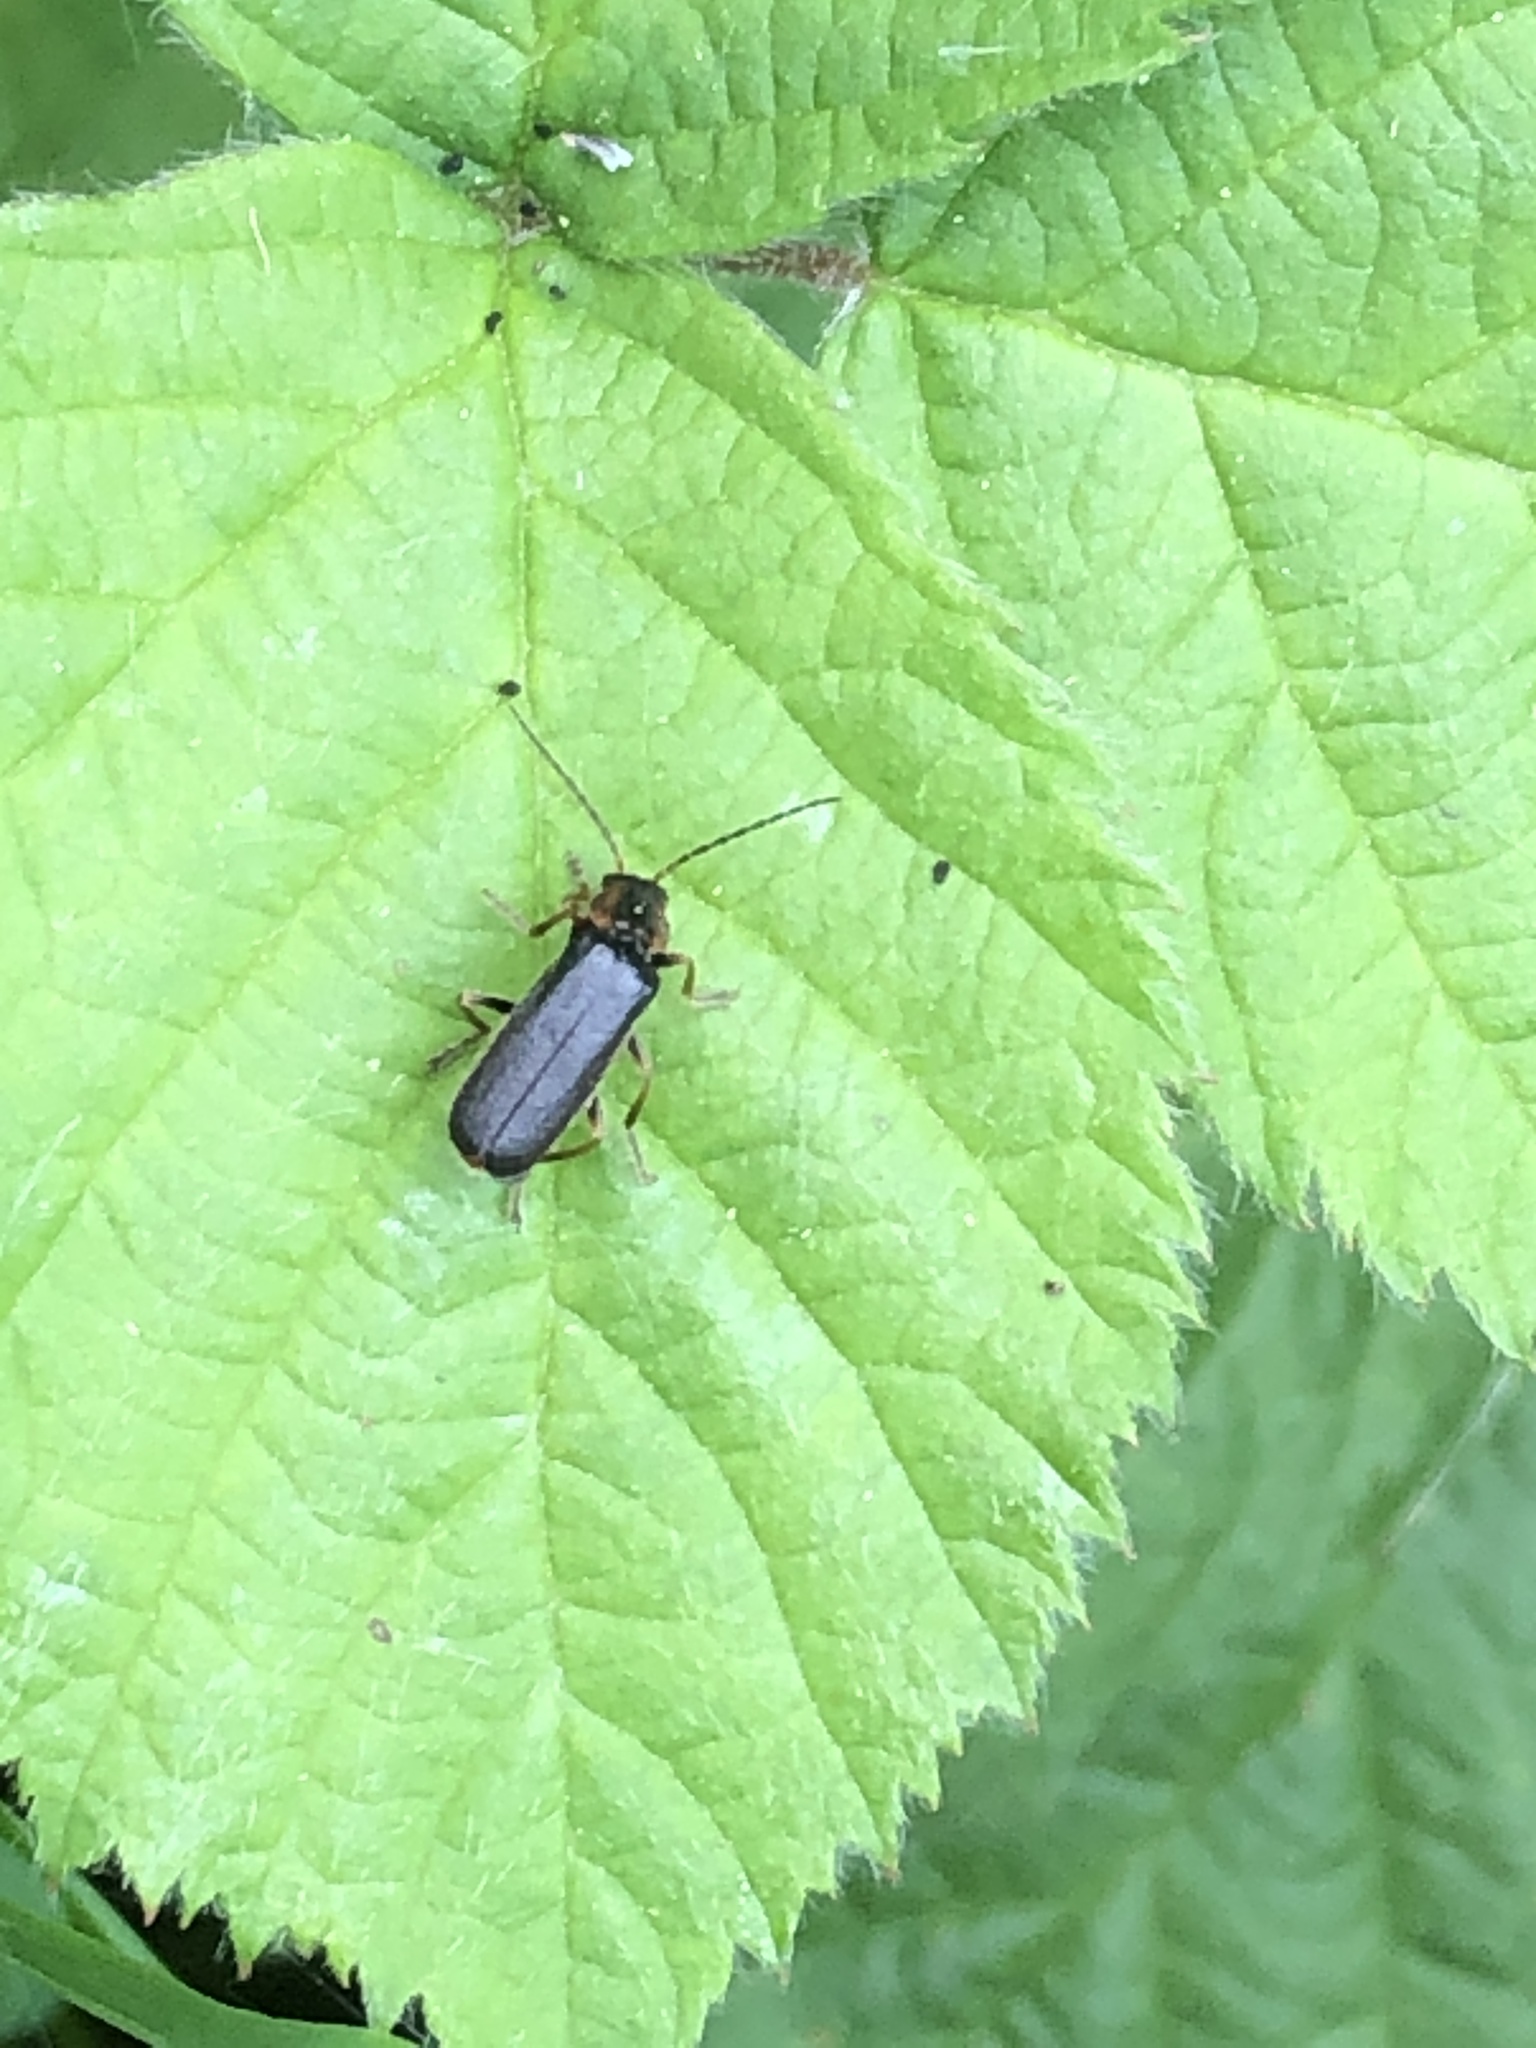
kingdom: Animalia
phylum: Arthropoda
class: Insecta
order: Coleoptera
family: Cantharidae
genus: Cantharis
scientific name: Cantharis flavilabris
